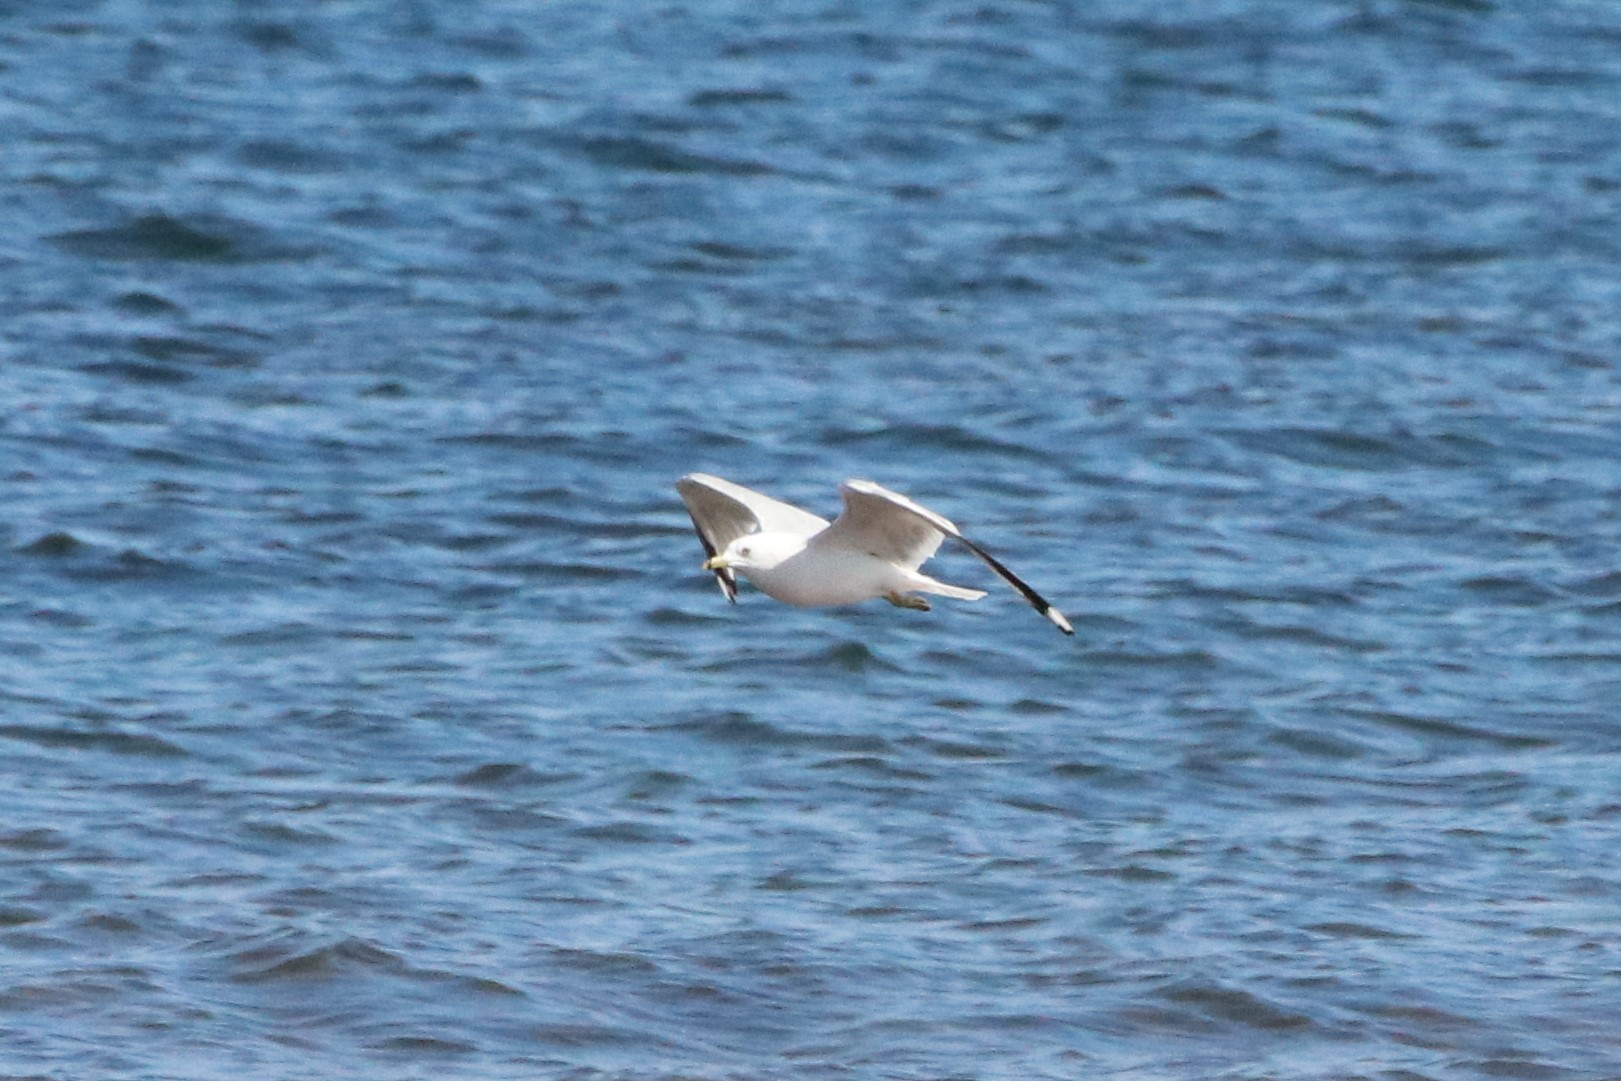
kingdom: Animalia
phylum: Chordata
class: Aves
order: Charadriiformes
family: Laridae
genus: Larus
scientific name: Larus delawarensis
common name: Ring-billed gull
